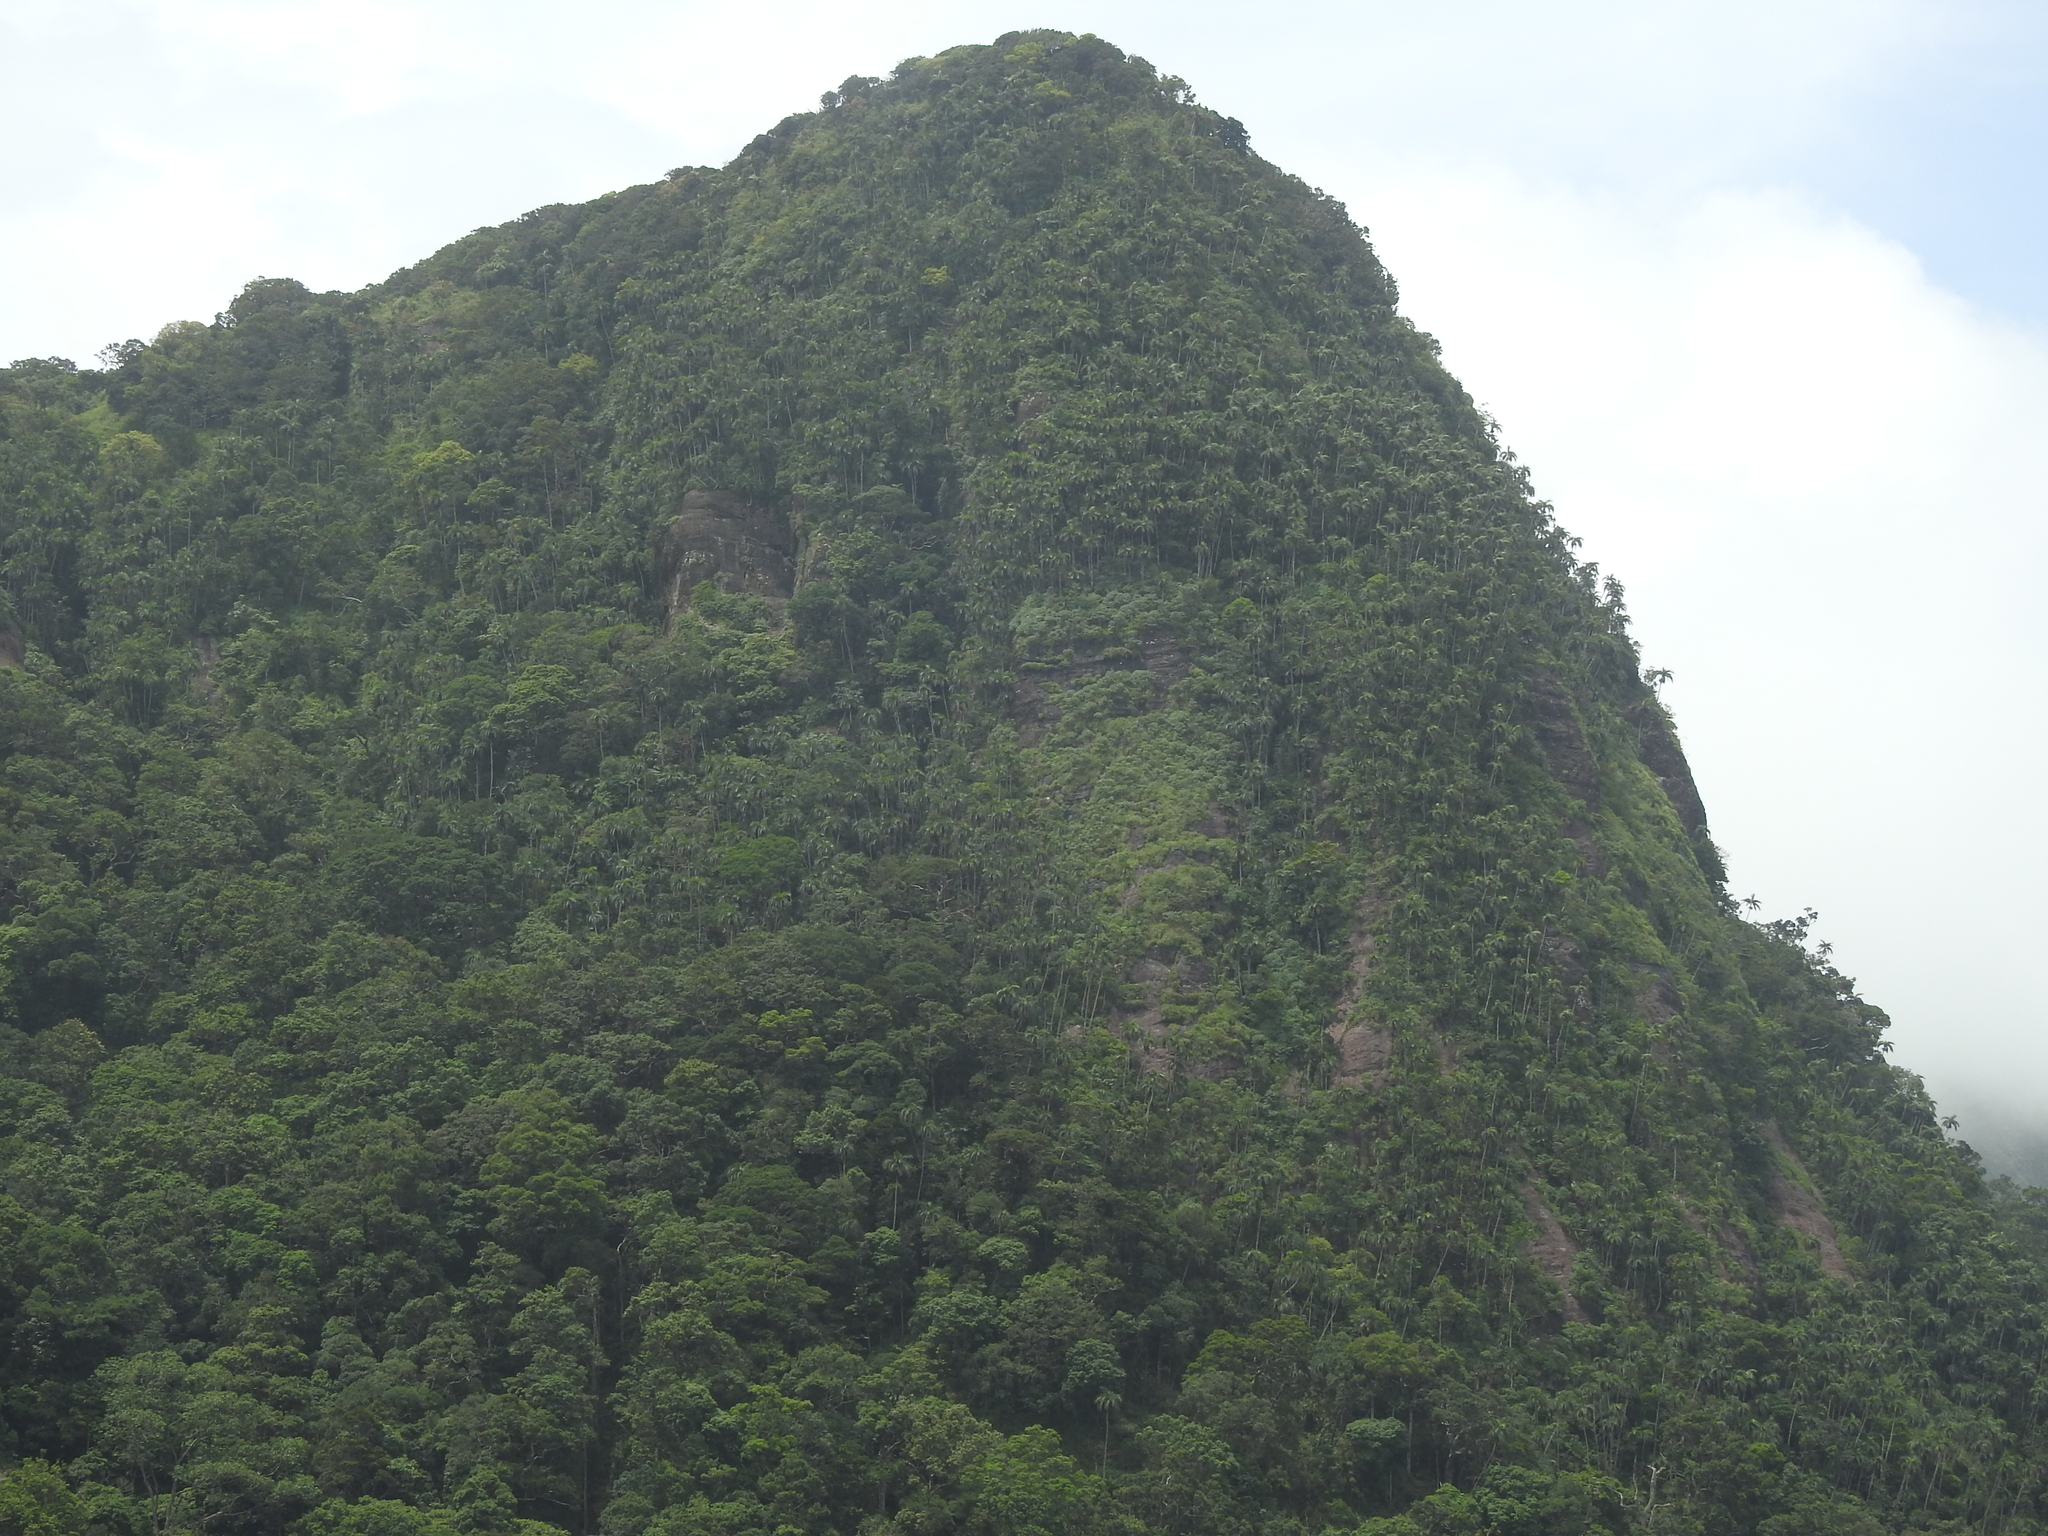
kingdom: Plantae
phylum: Tracheophyta
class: Liliopsida
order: Arecales
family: Arecaceae
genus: Bentinckia
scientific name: Bentinckia condapanna
